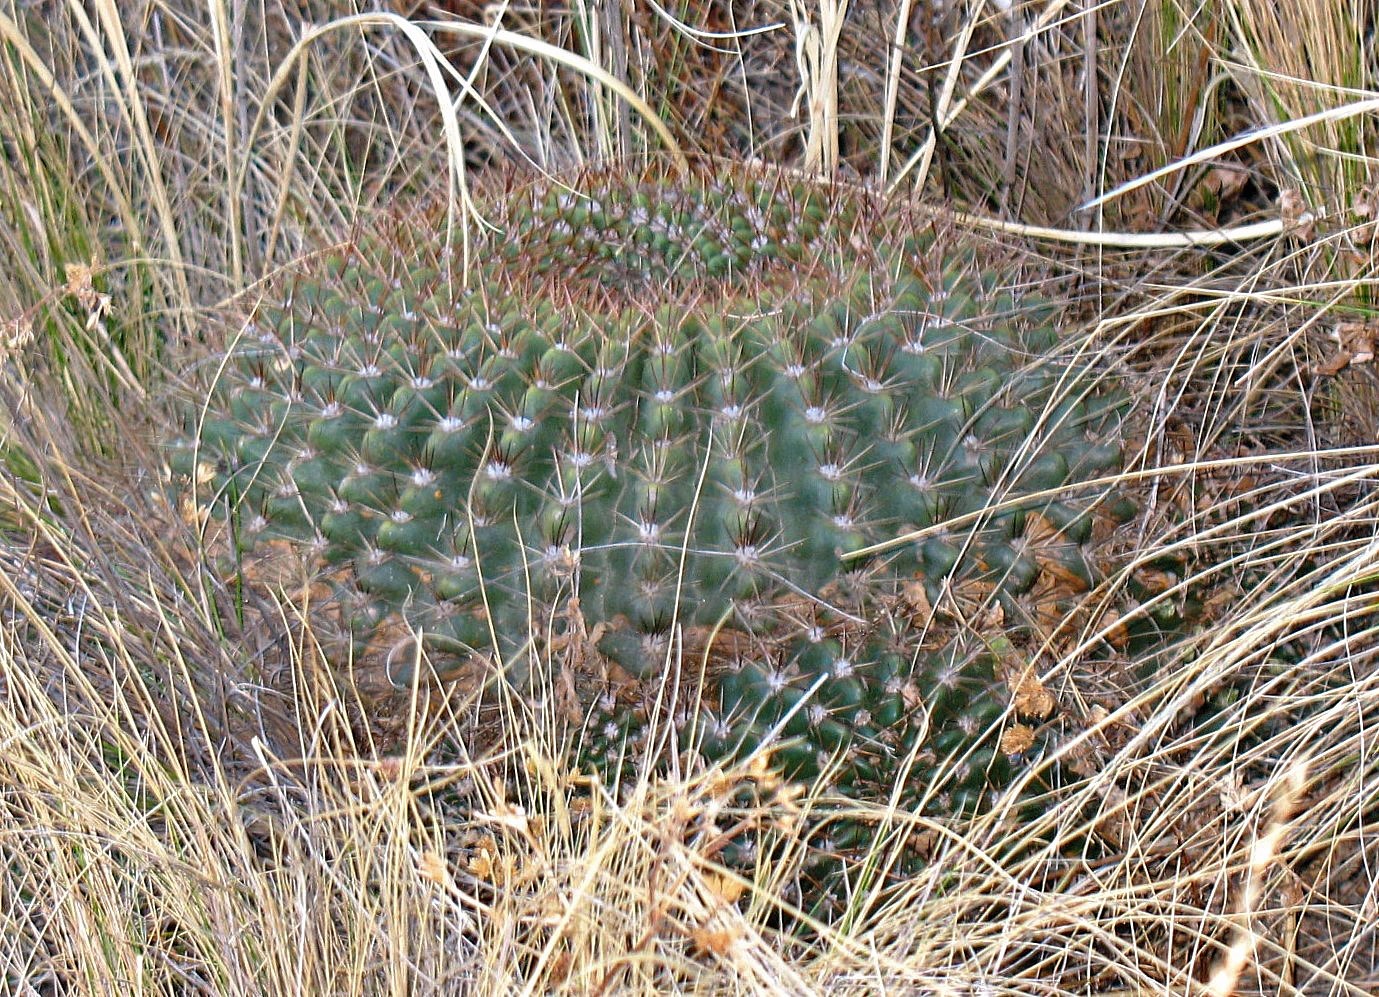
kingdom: Plantae
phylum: Tracheophyta
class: Magnoliopsida
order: Caryophyllales
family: Cactaceae
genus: Soehrensia
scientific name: Soehrensia bruchii
